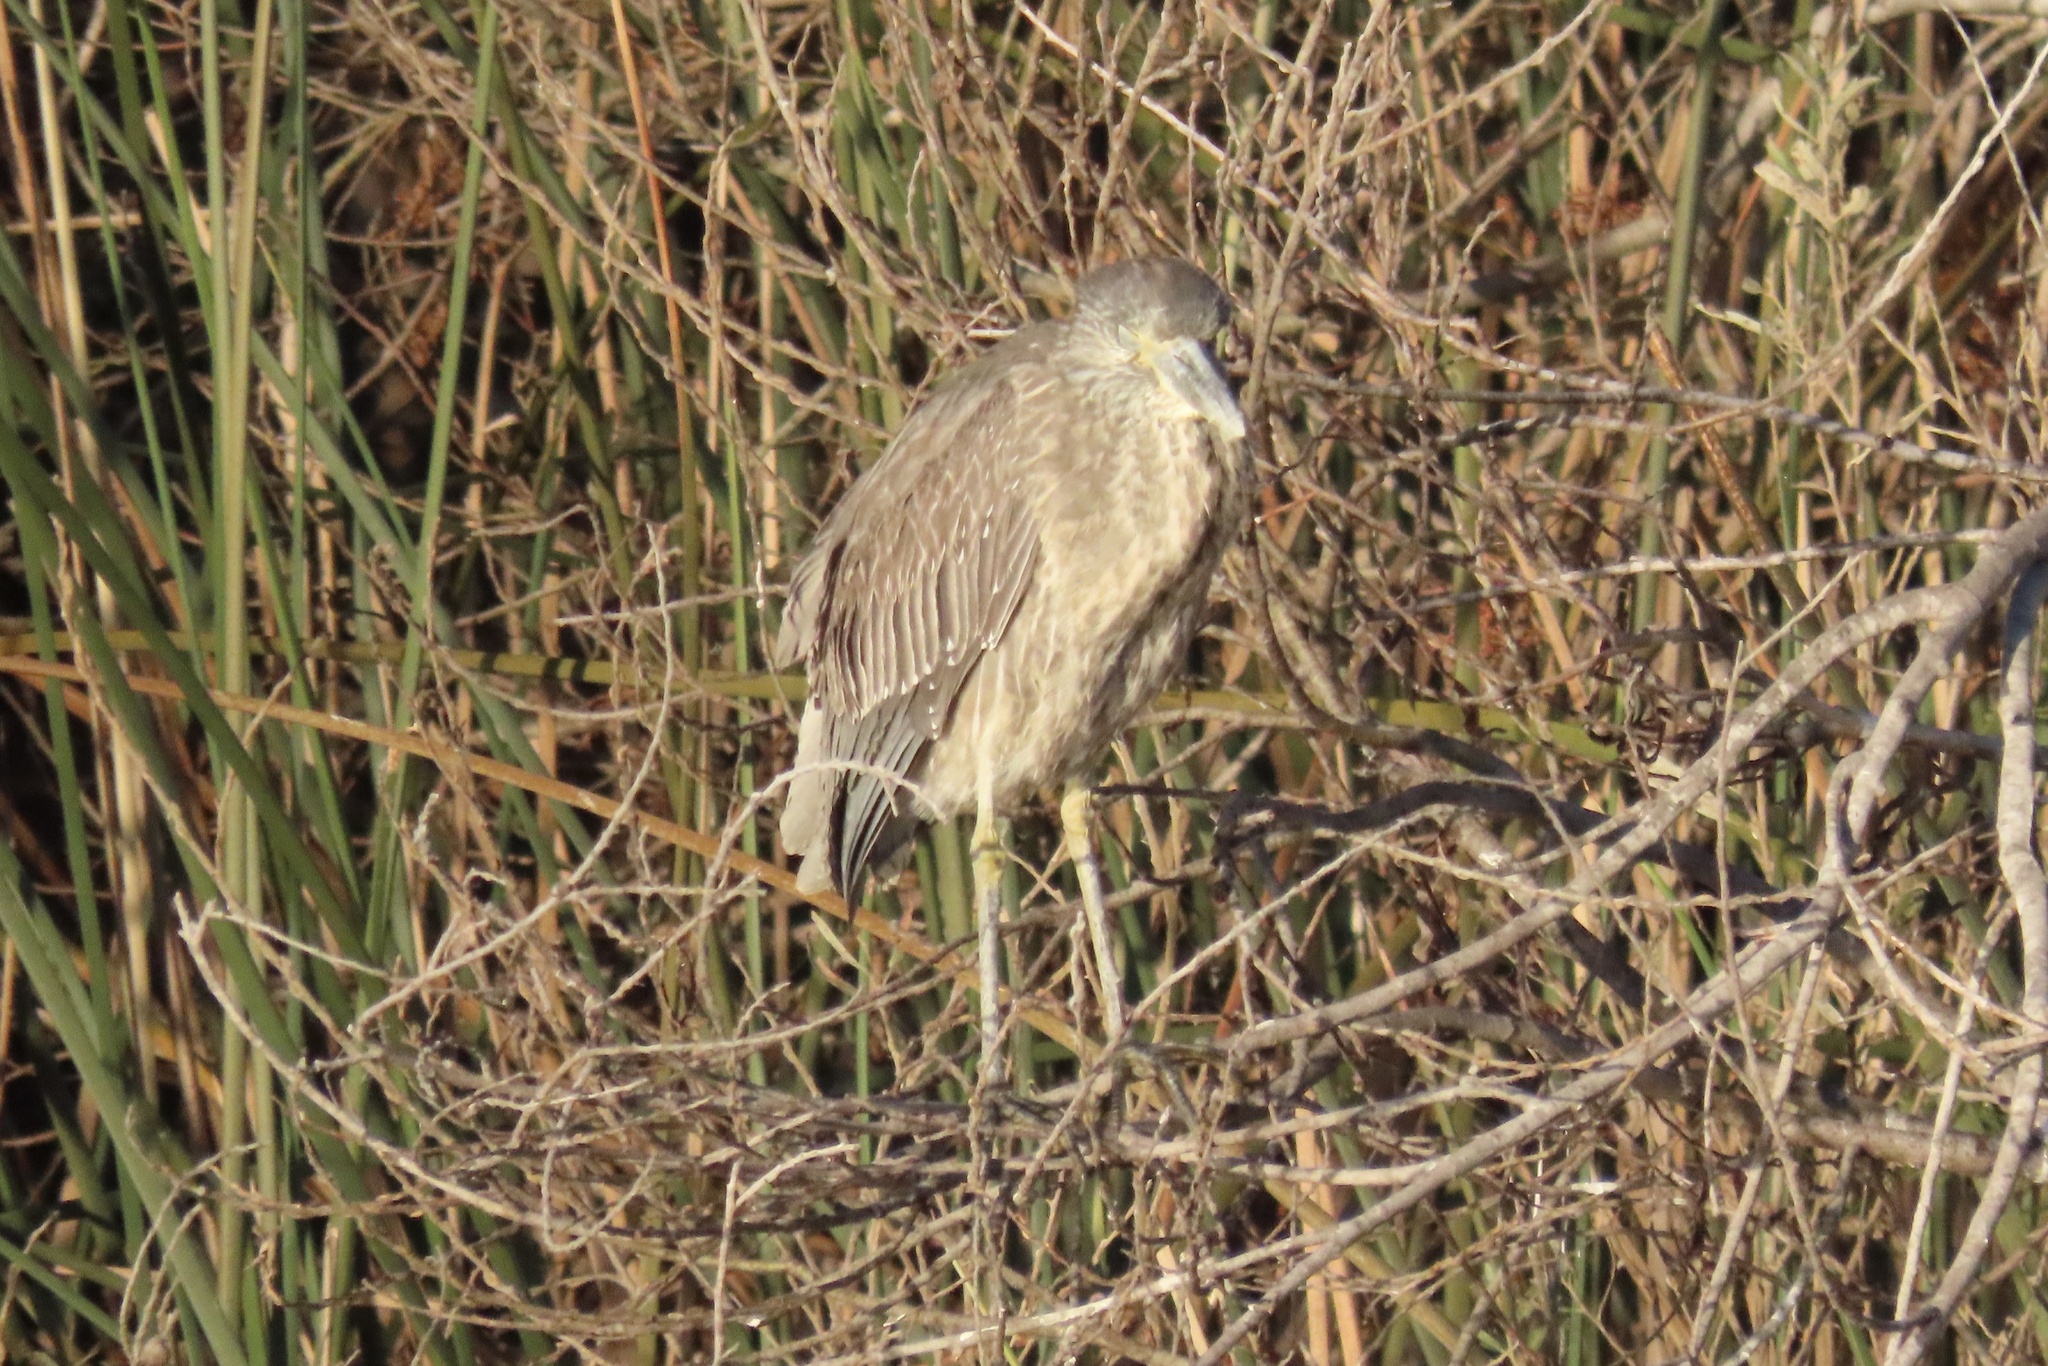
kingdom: Animalia
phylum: Chordata
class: Aves
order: Pelecaniformes
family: Ardeidae
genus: Nyctanassa
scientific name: Nyctanassa violacea
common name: Yellow-crowned night heron
